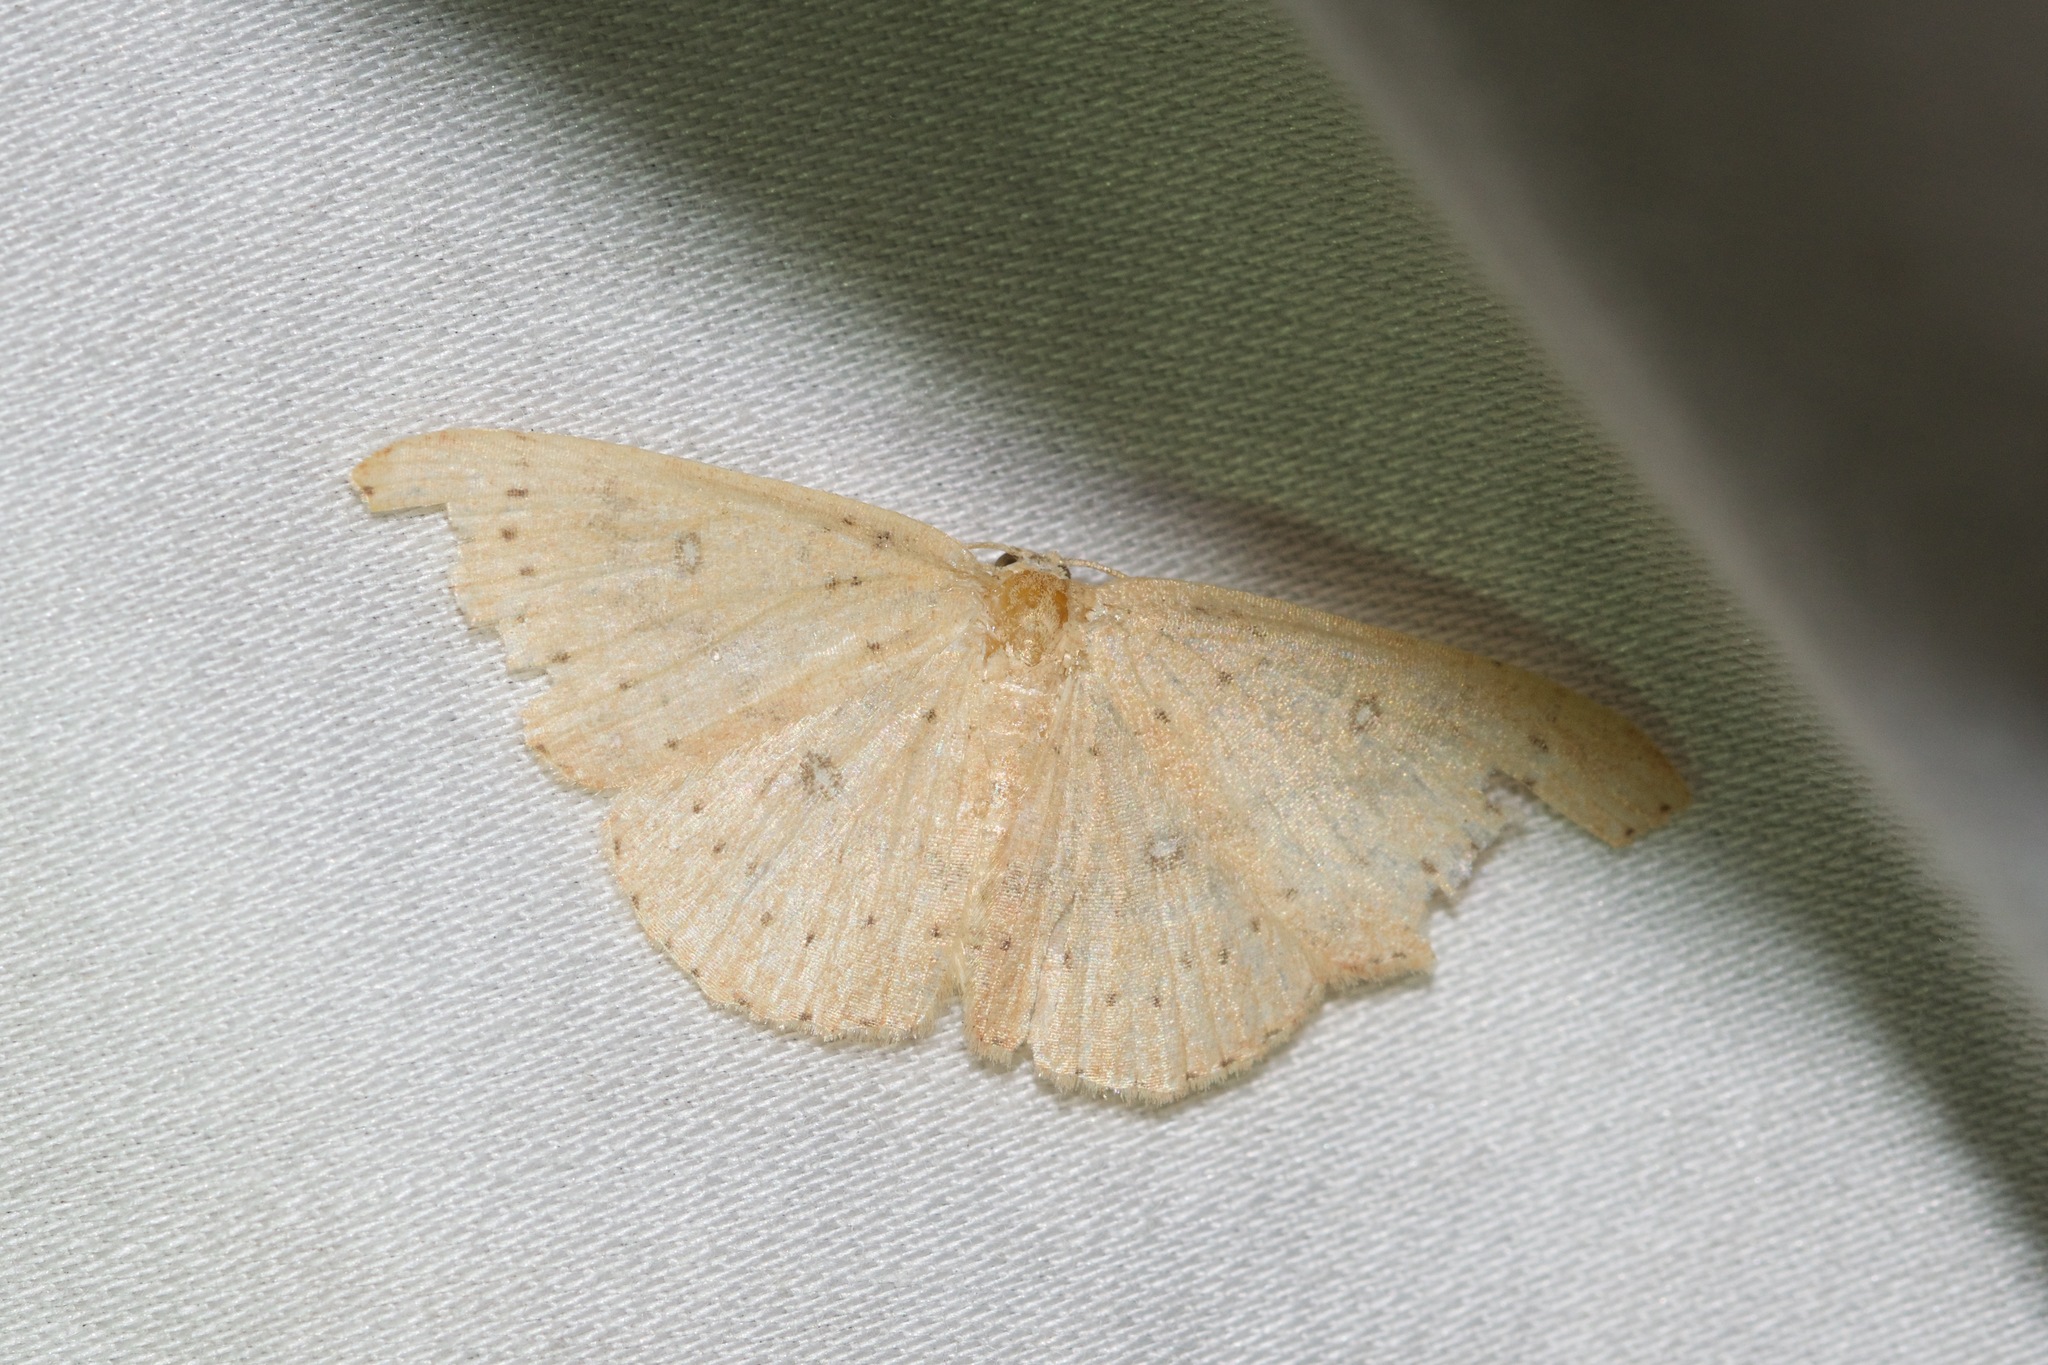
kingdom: Animalia
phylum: Arthropoda
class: Insecta
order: Lepidoptera
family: Geometridae
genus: Cyclophora
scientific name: Cyclophora packardi
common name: Packard's wave
